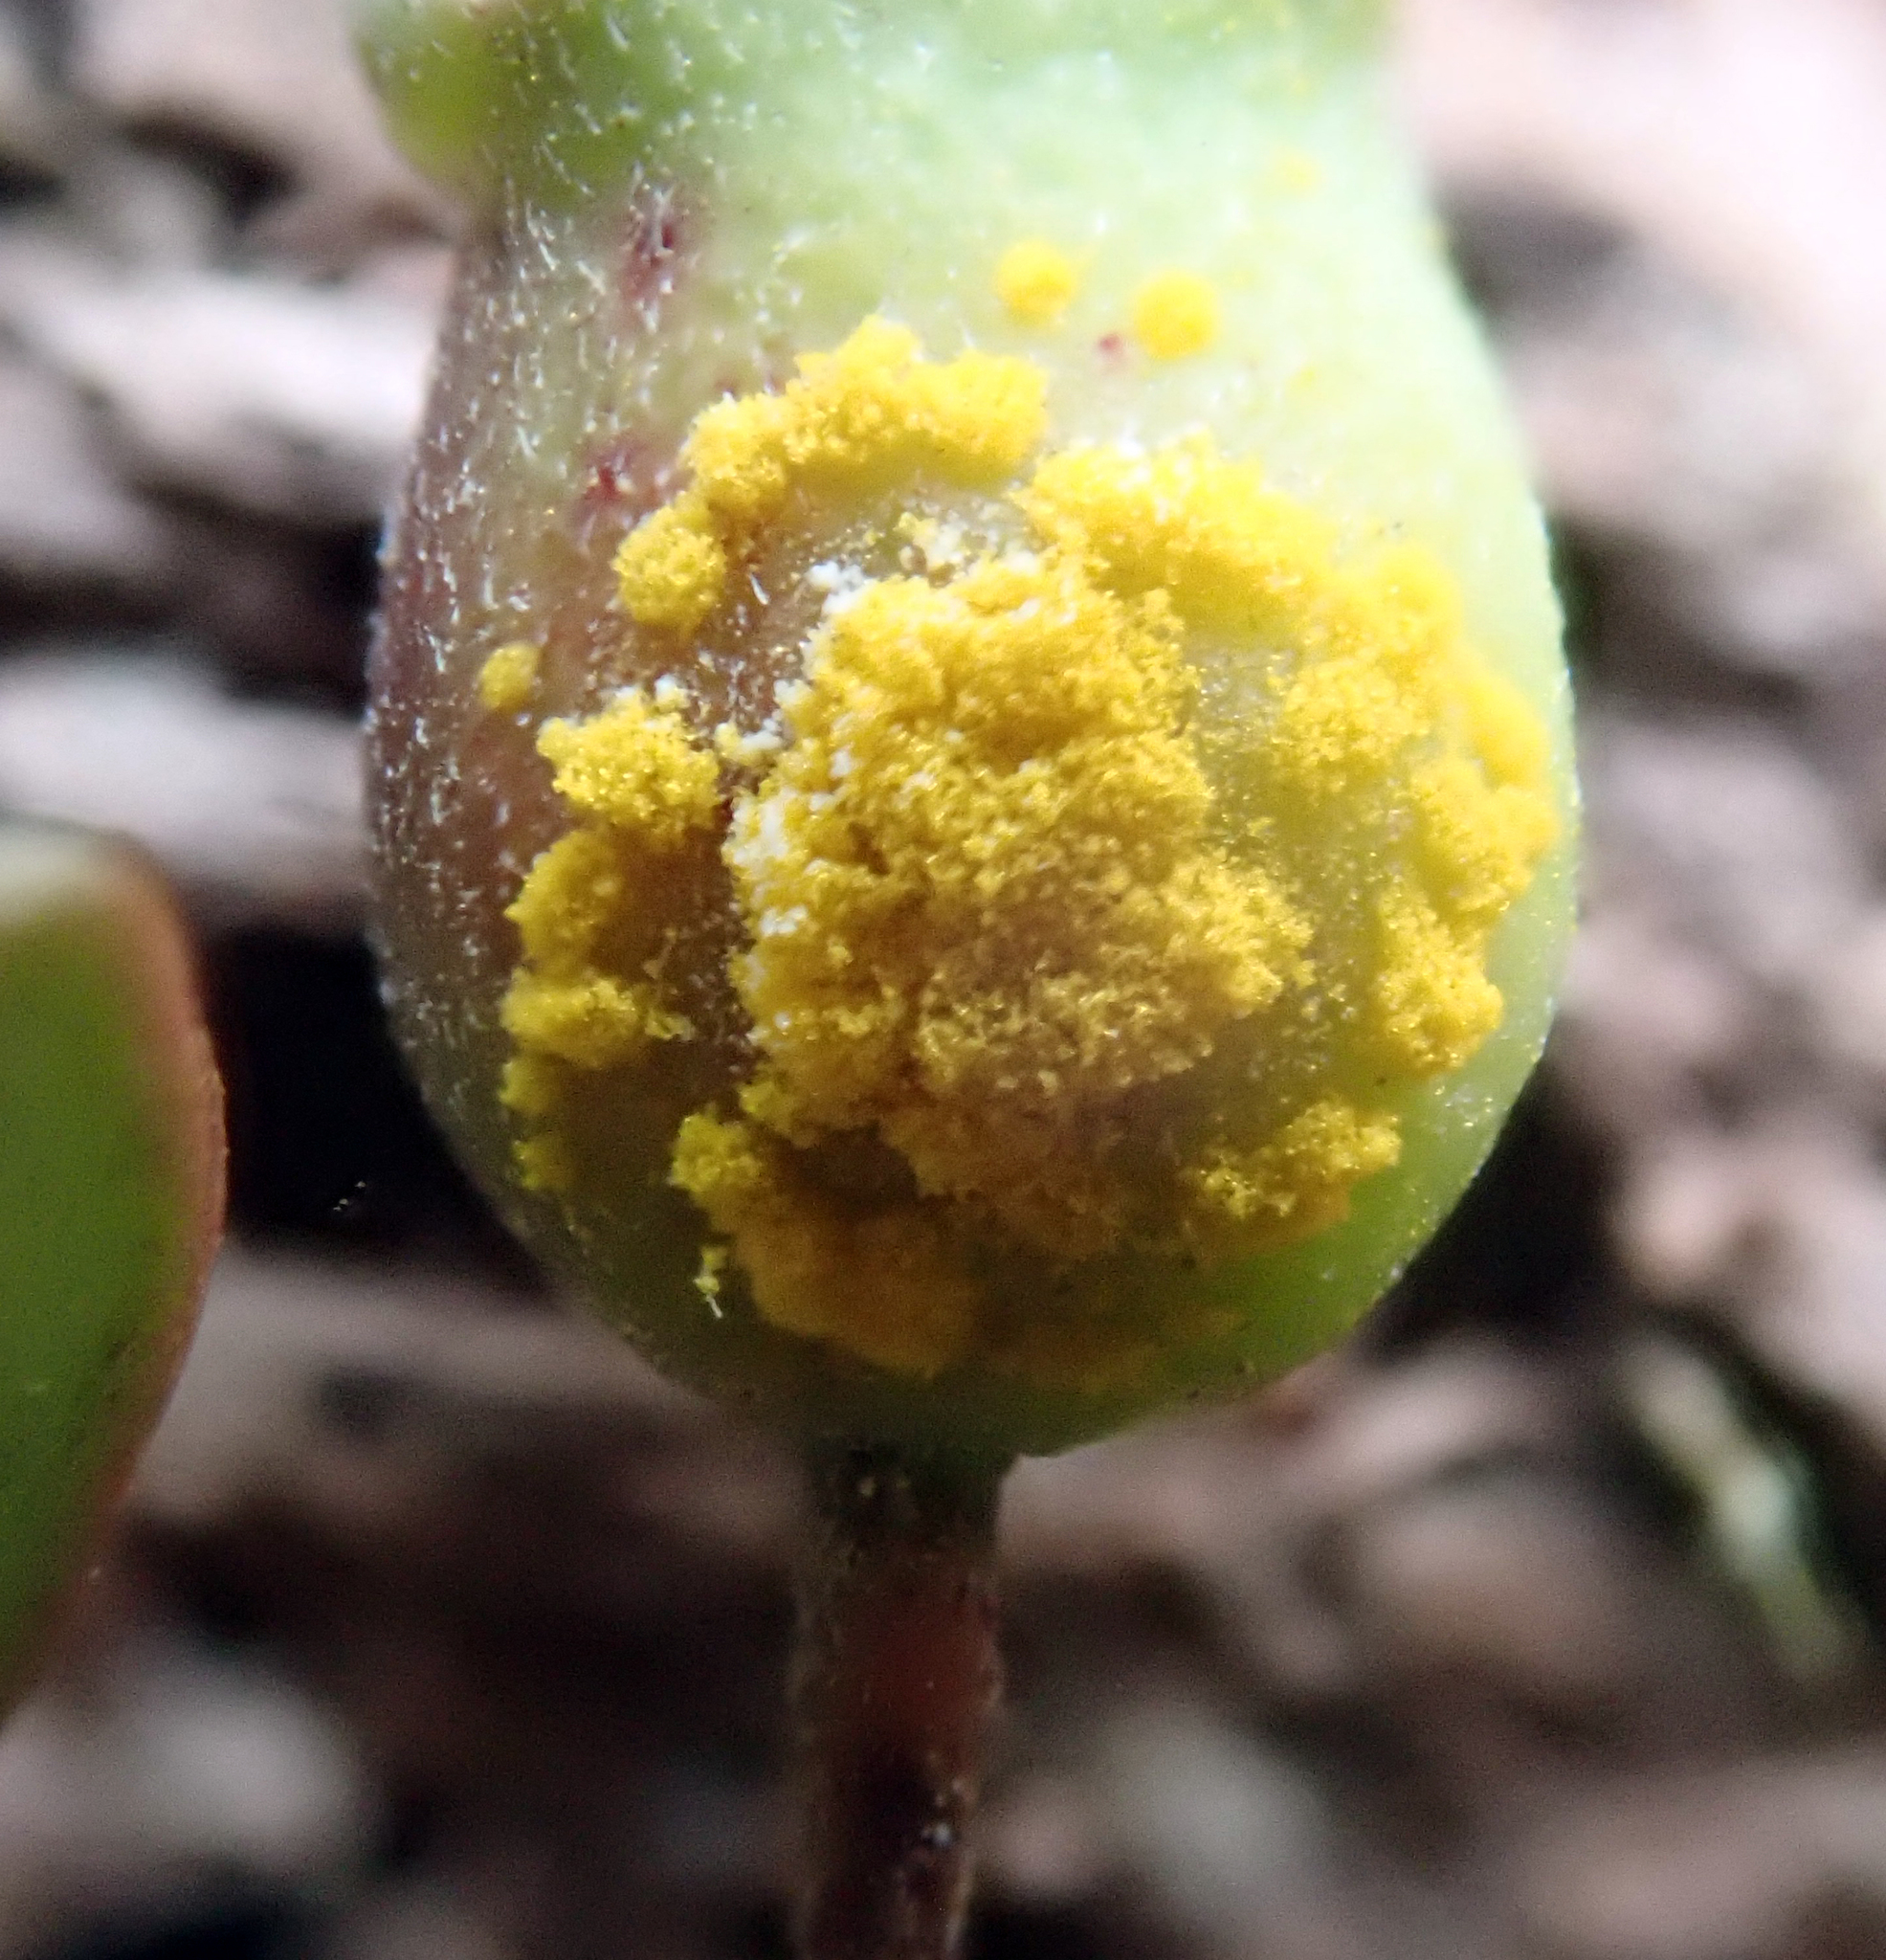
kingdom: Fungi
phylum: Basidiomycota
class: Pucciniomycetes
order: Pucciniales
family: Sphaerophragmiaceae
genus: Austropuccinia
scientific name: Austropuccinia psidii
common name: Myrtle rust
